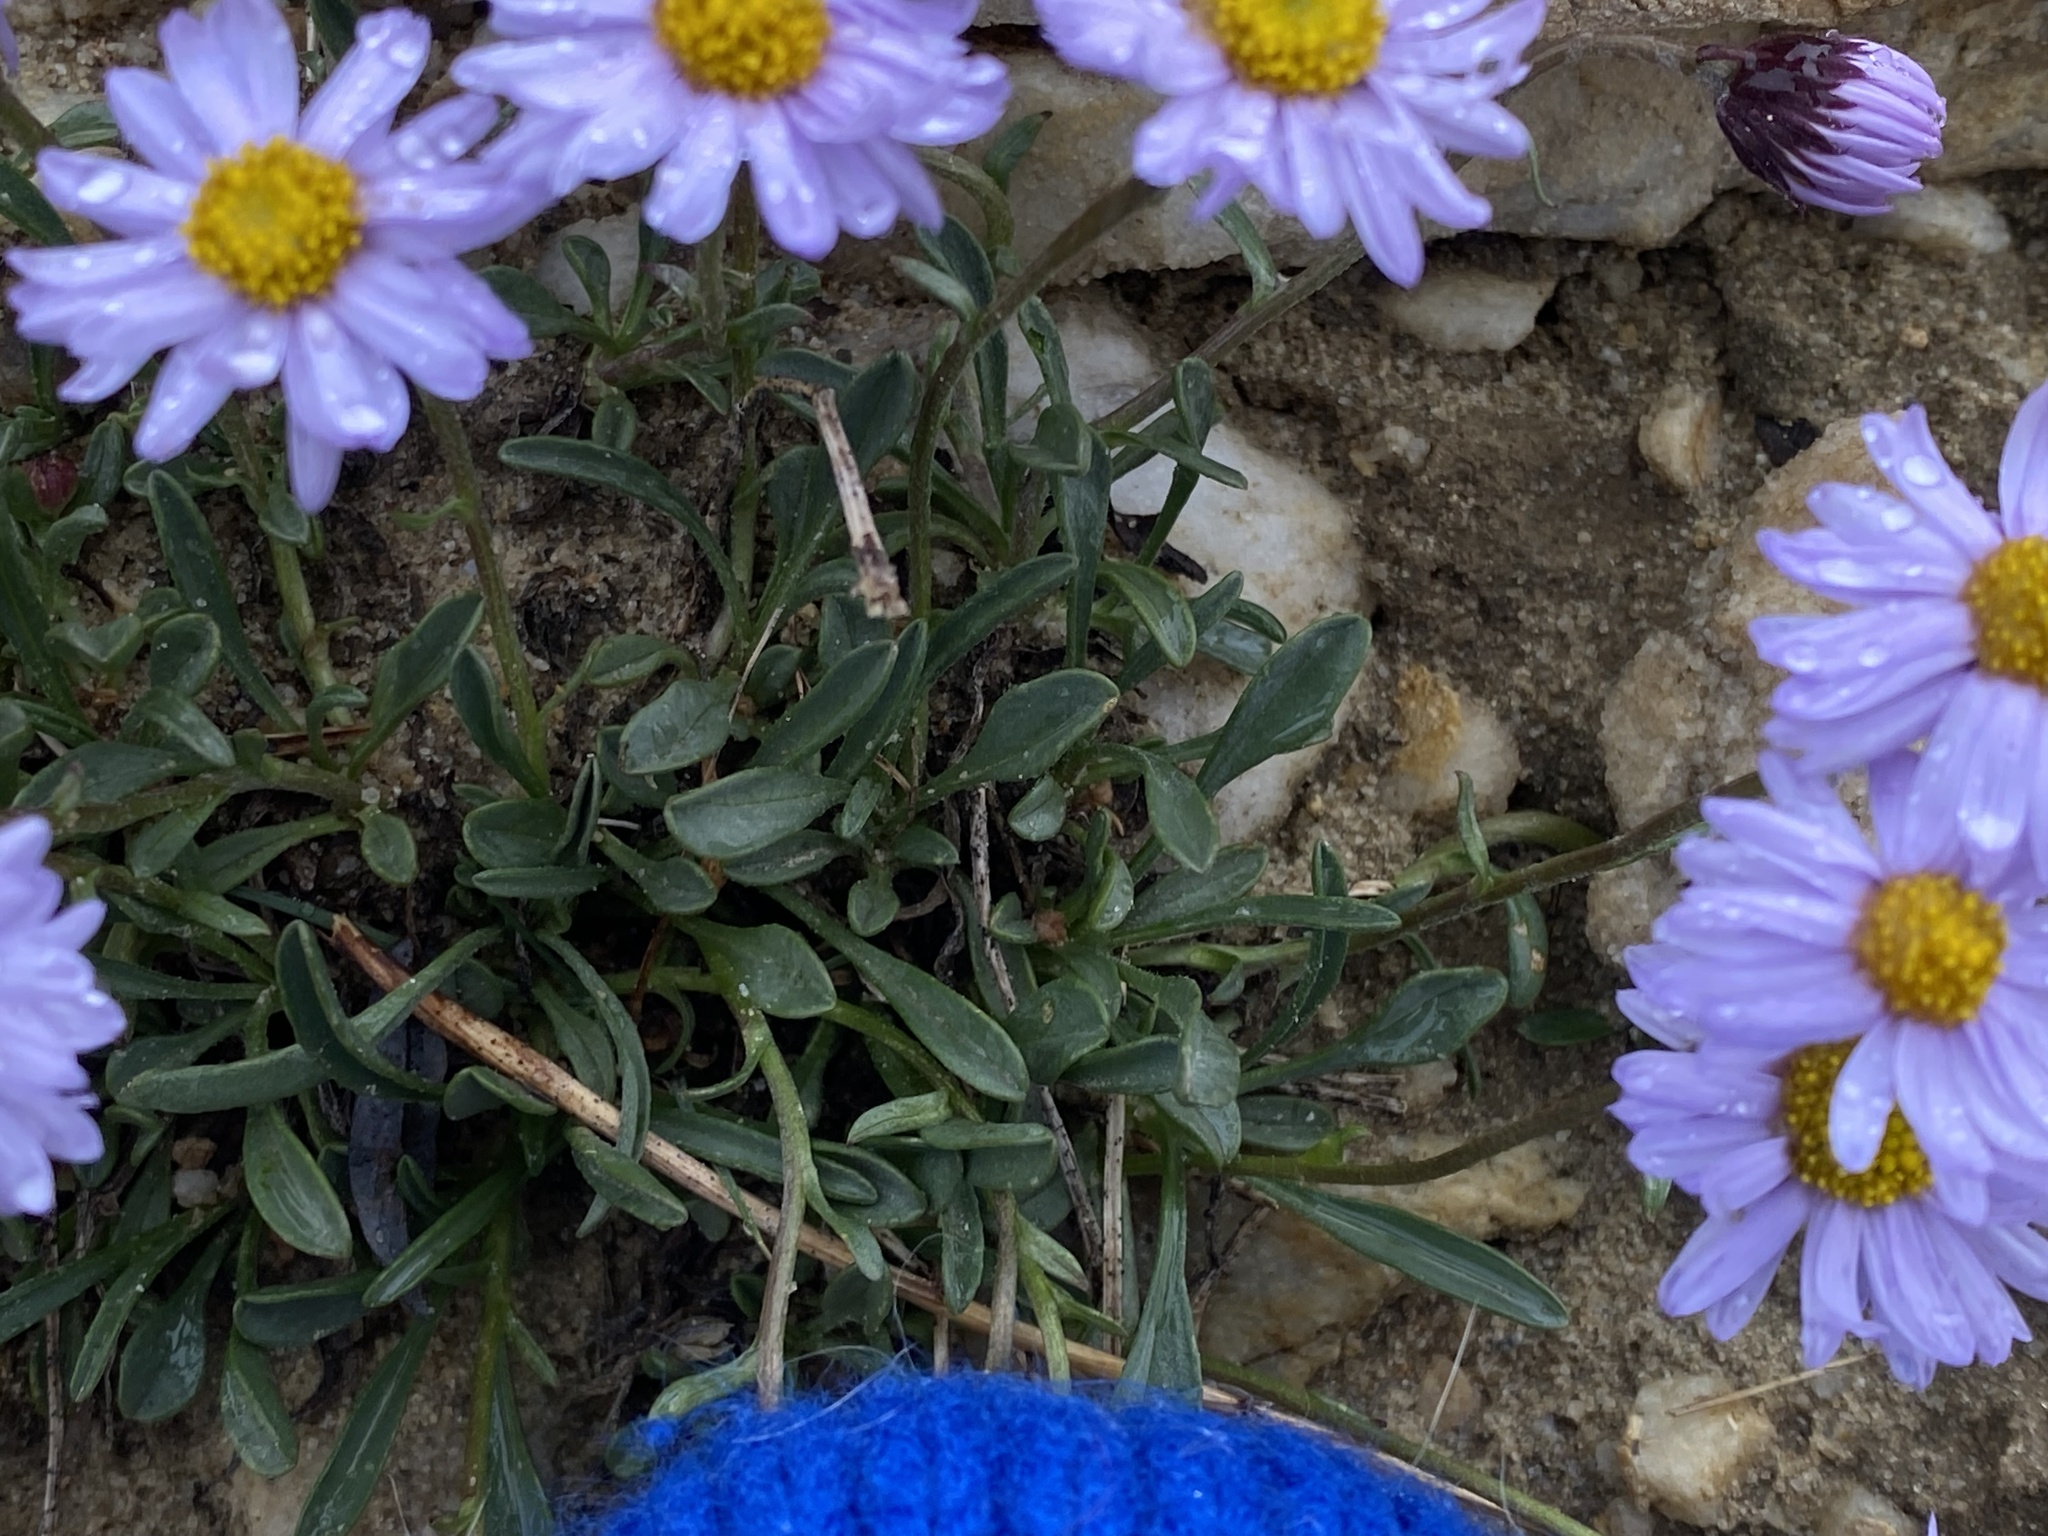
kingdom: Plantae
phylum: Tracheophyta
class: Magnoliopsida
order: Asterales
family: Asteraceae
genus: Erigeron
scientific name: Erigeron leiomerus
